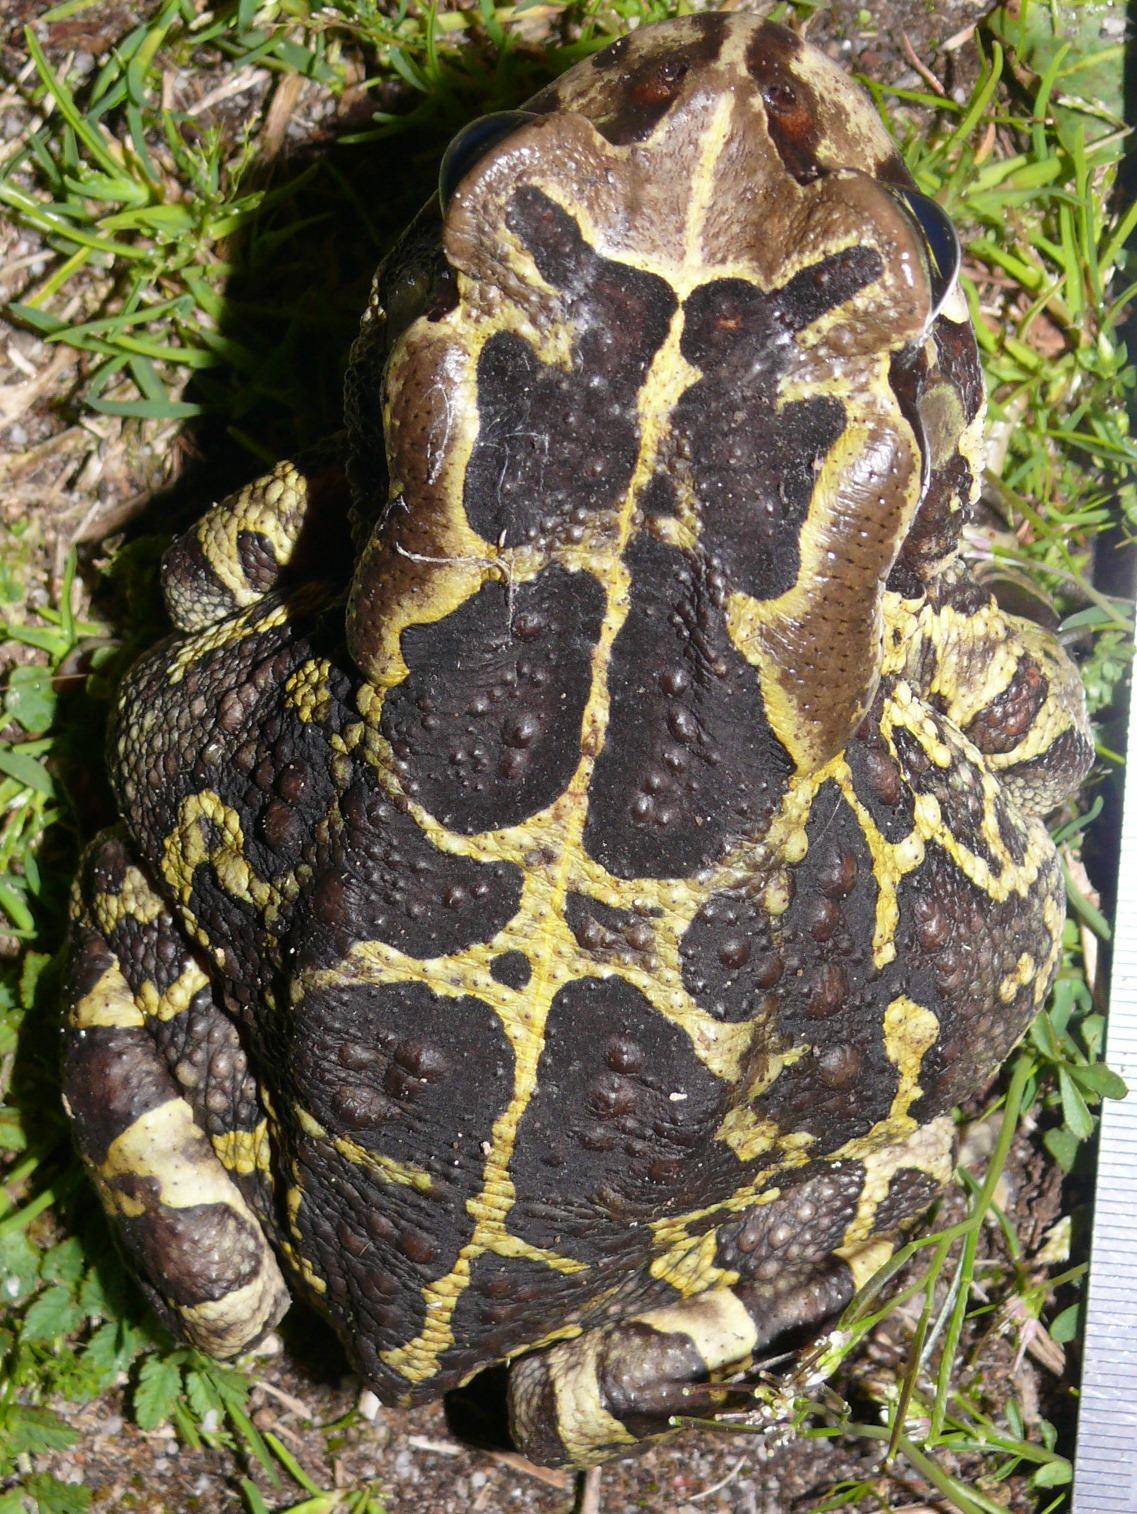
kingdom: Animalia
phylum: Chordata
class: Amphibia
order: Anura
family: Bufonidae
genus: Sclerophrys
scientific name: Sclerophrys pantherina
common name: Panther toad
